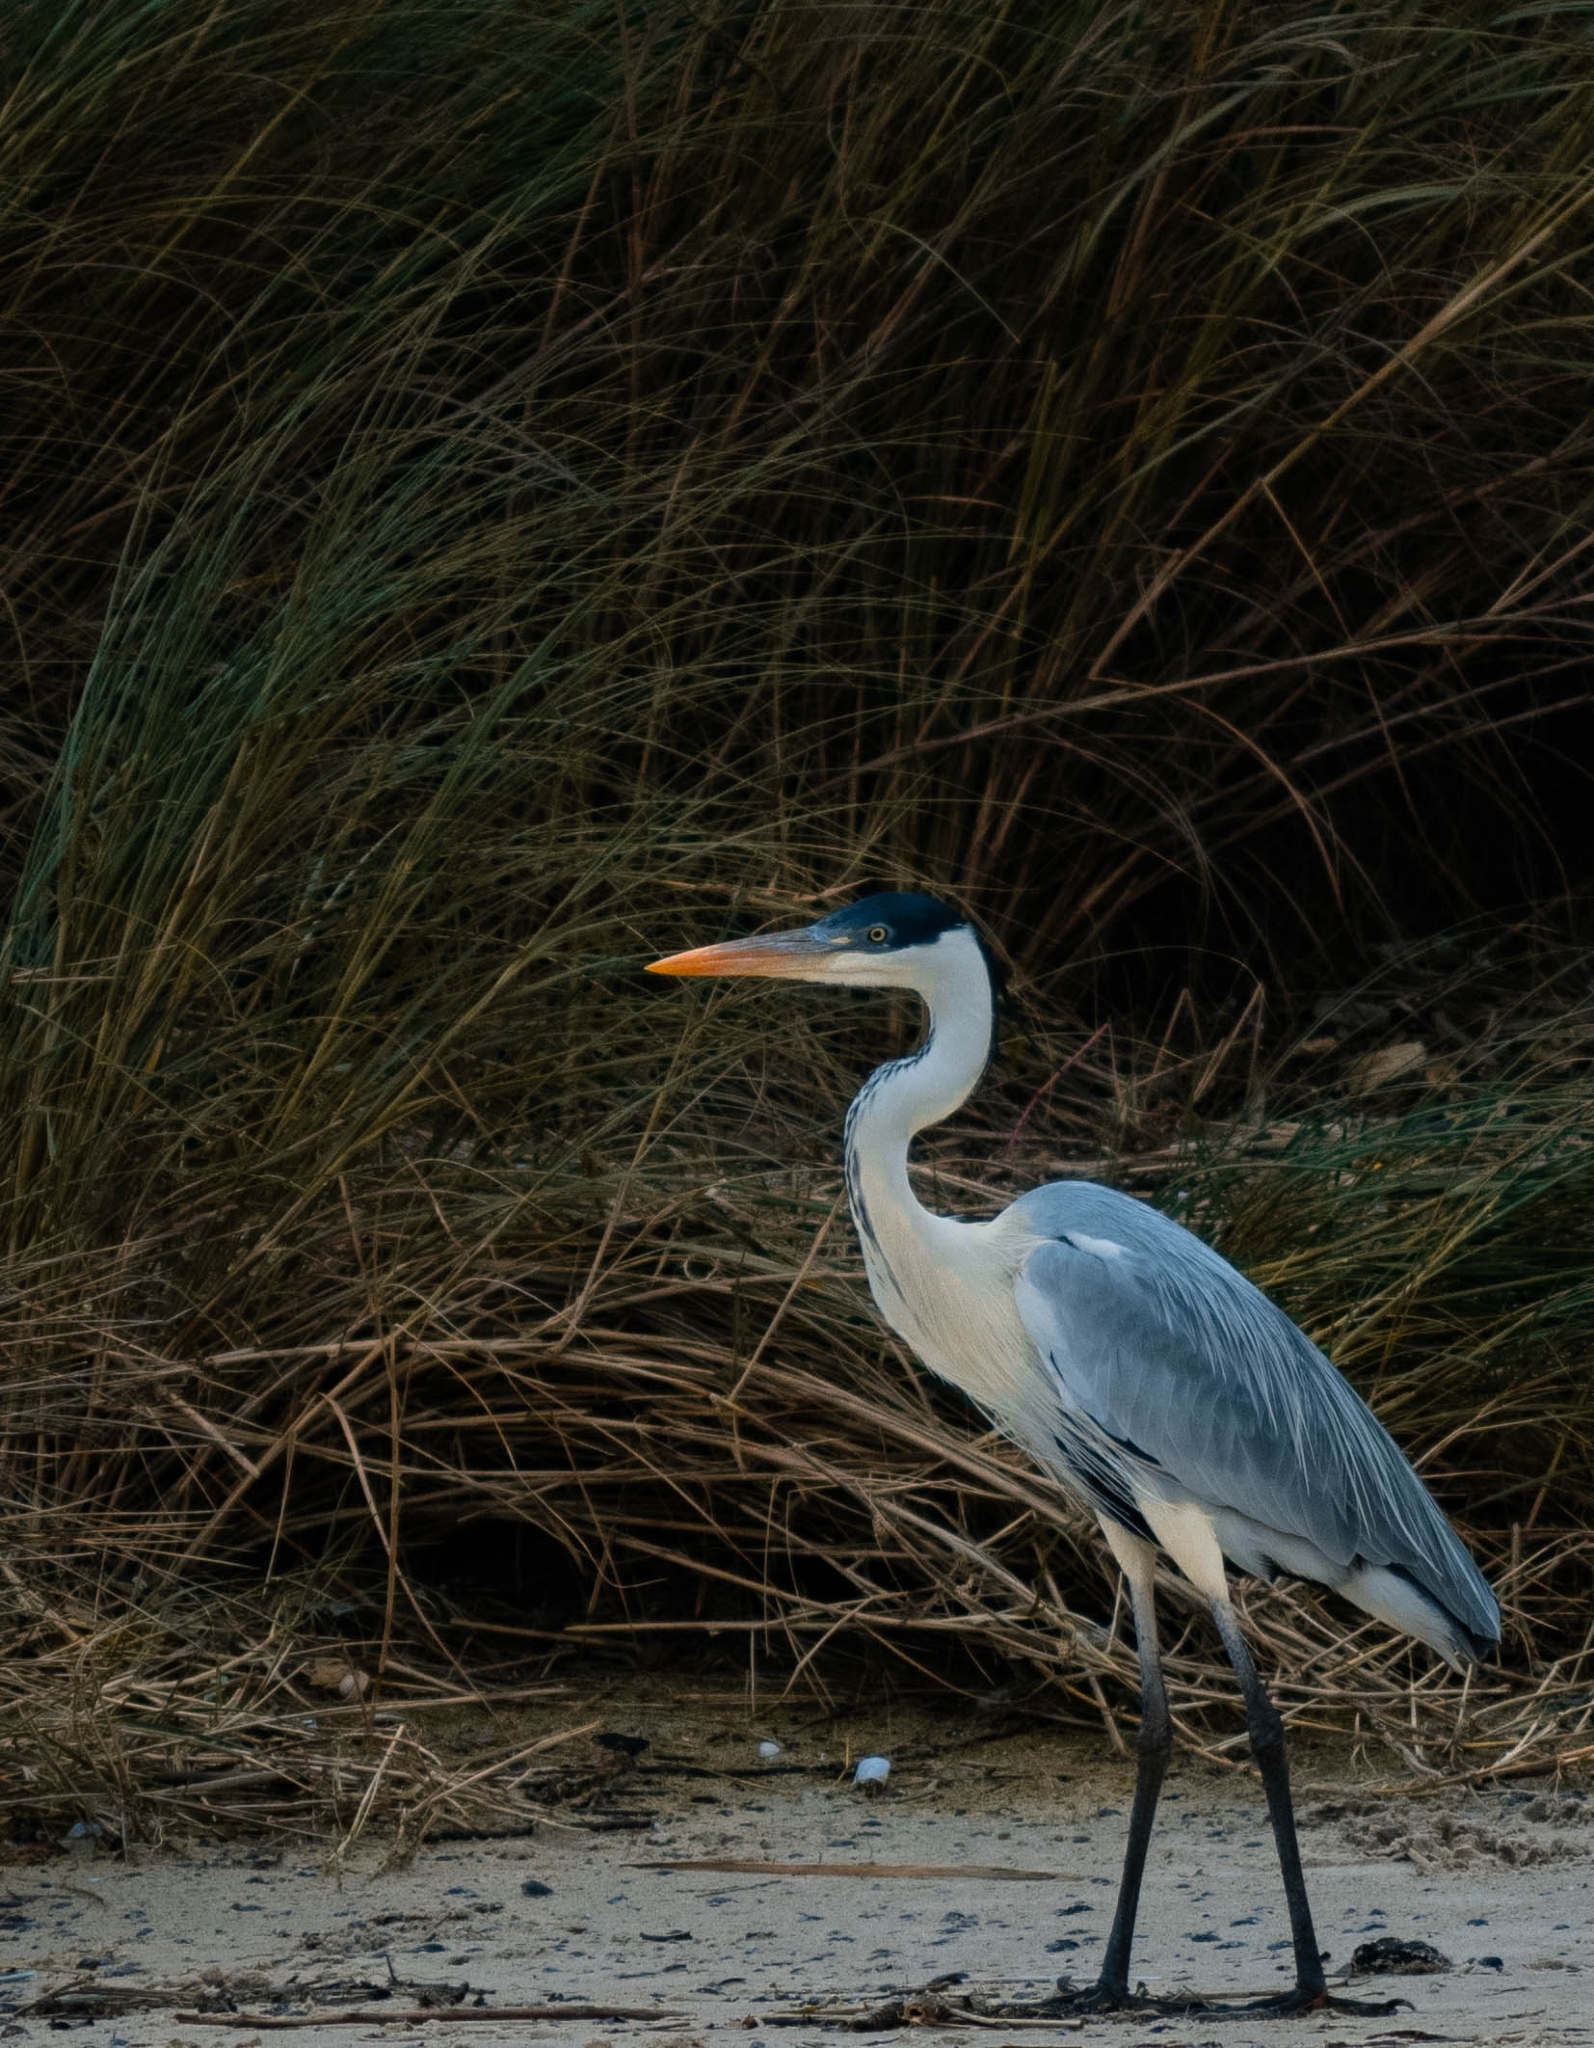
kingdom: Animalia
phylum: Chordata
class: Aves
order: Pelecaniformes
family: Ardeidae
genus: Ardea
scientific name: Ardea cocoi
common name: Cocoi heron
